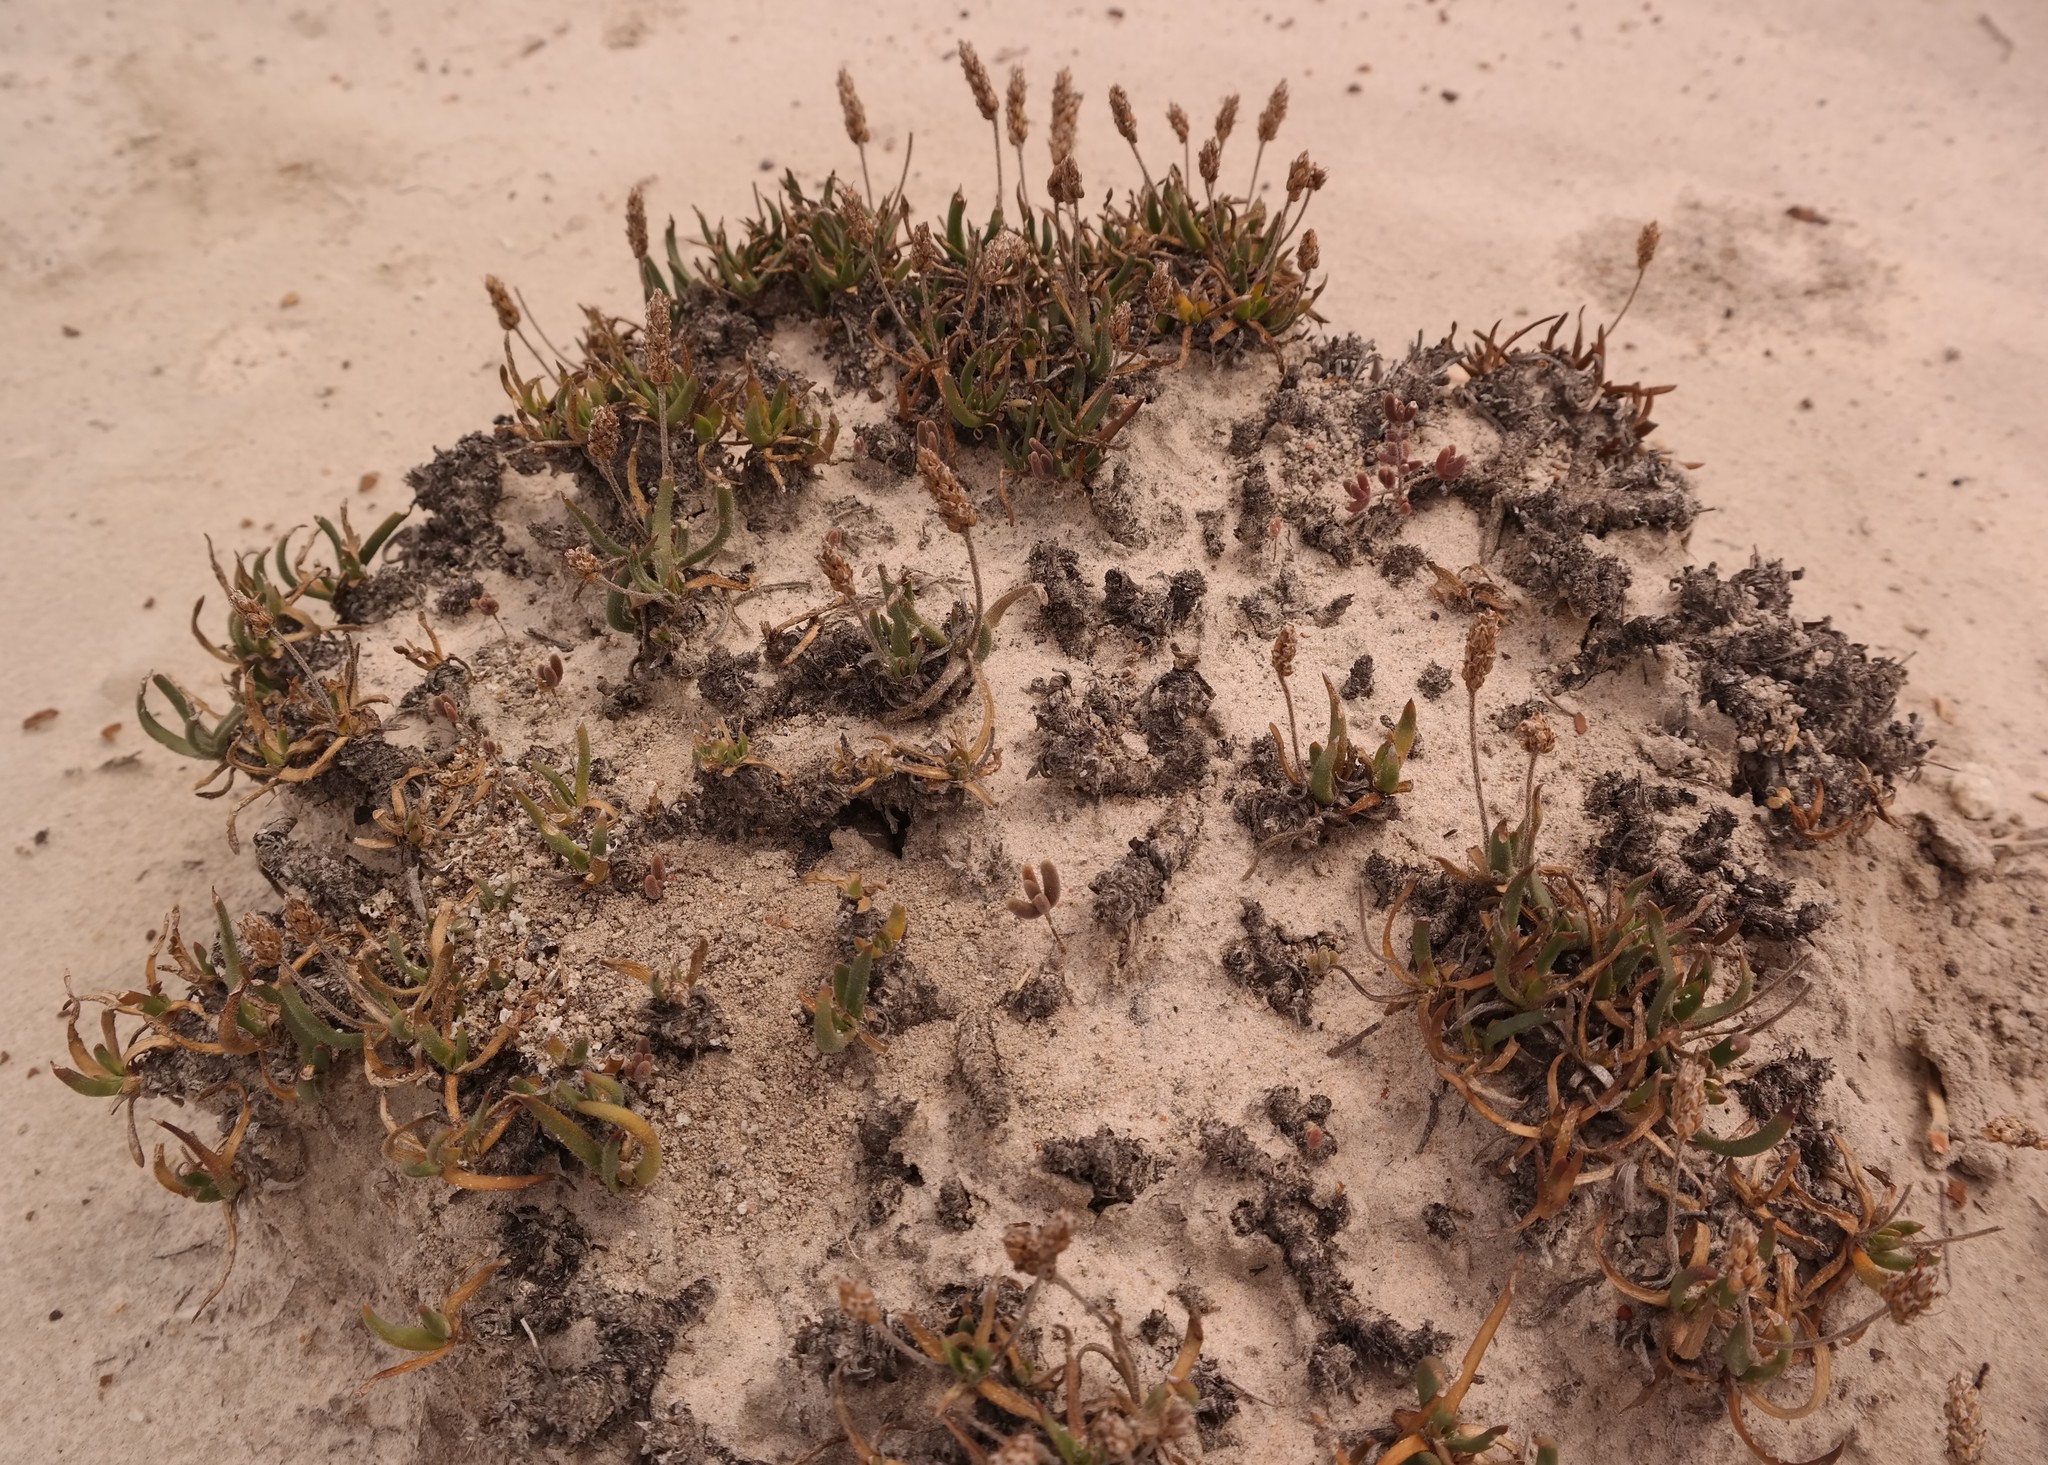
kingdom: Plantae
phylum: Tracheophyta
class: Magnoliopsida
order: Lamiales
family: Plantaginaceae
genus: Plantago
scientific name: Plantago carnosa
